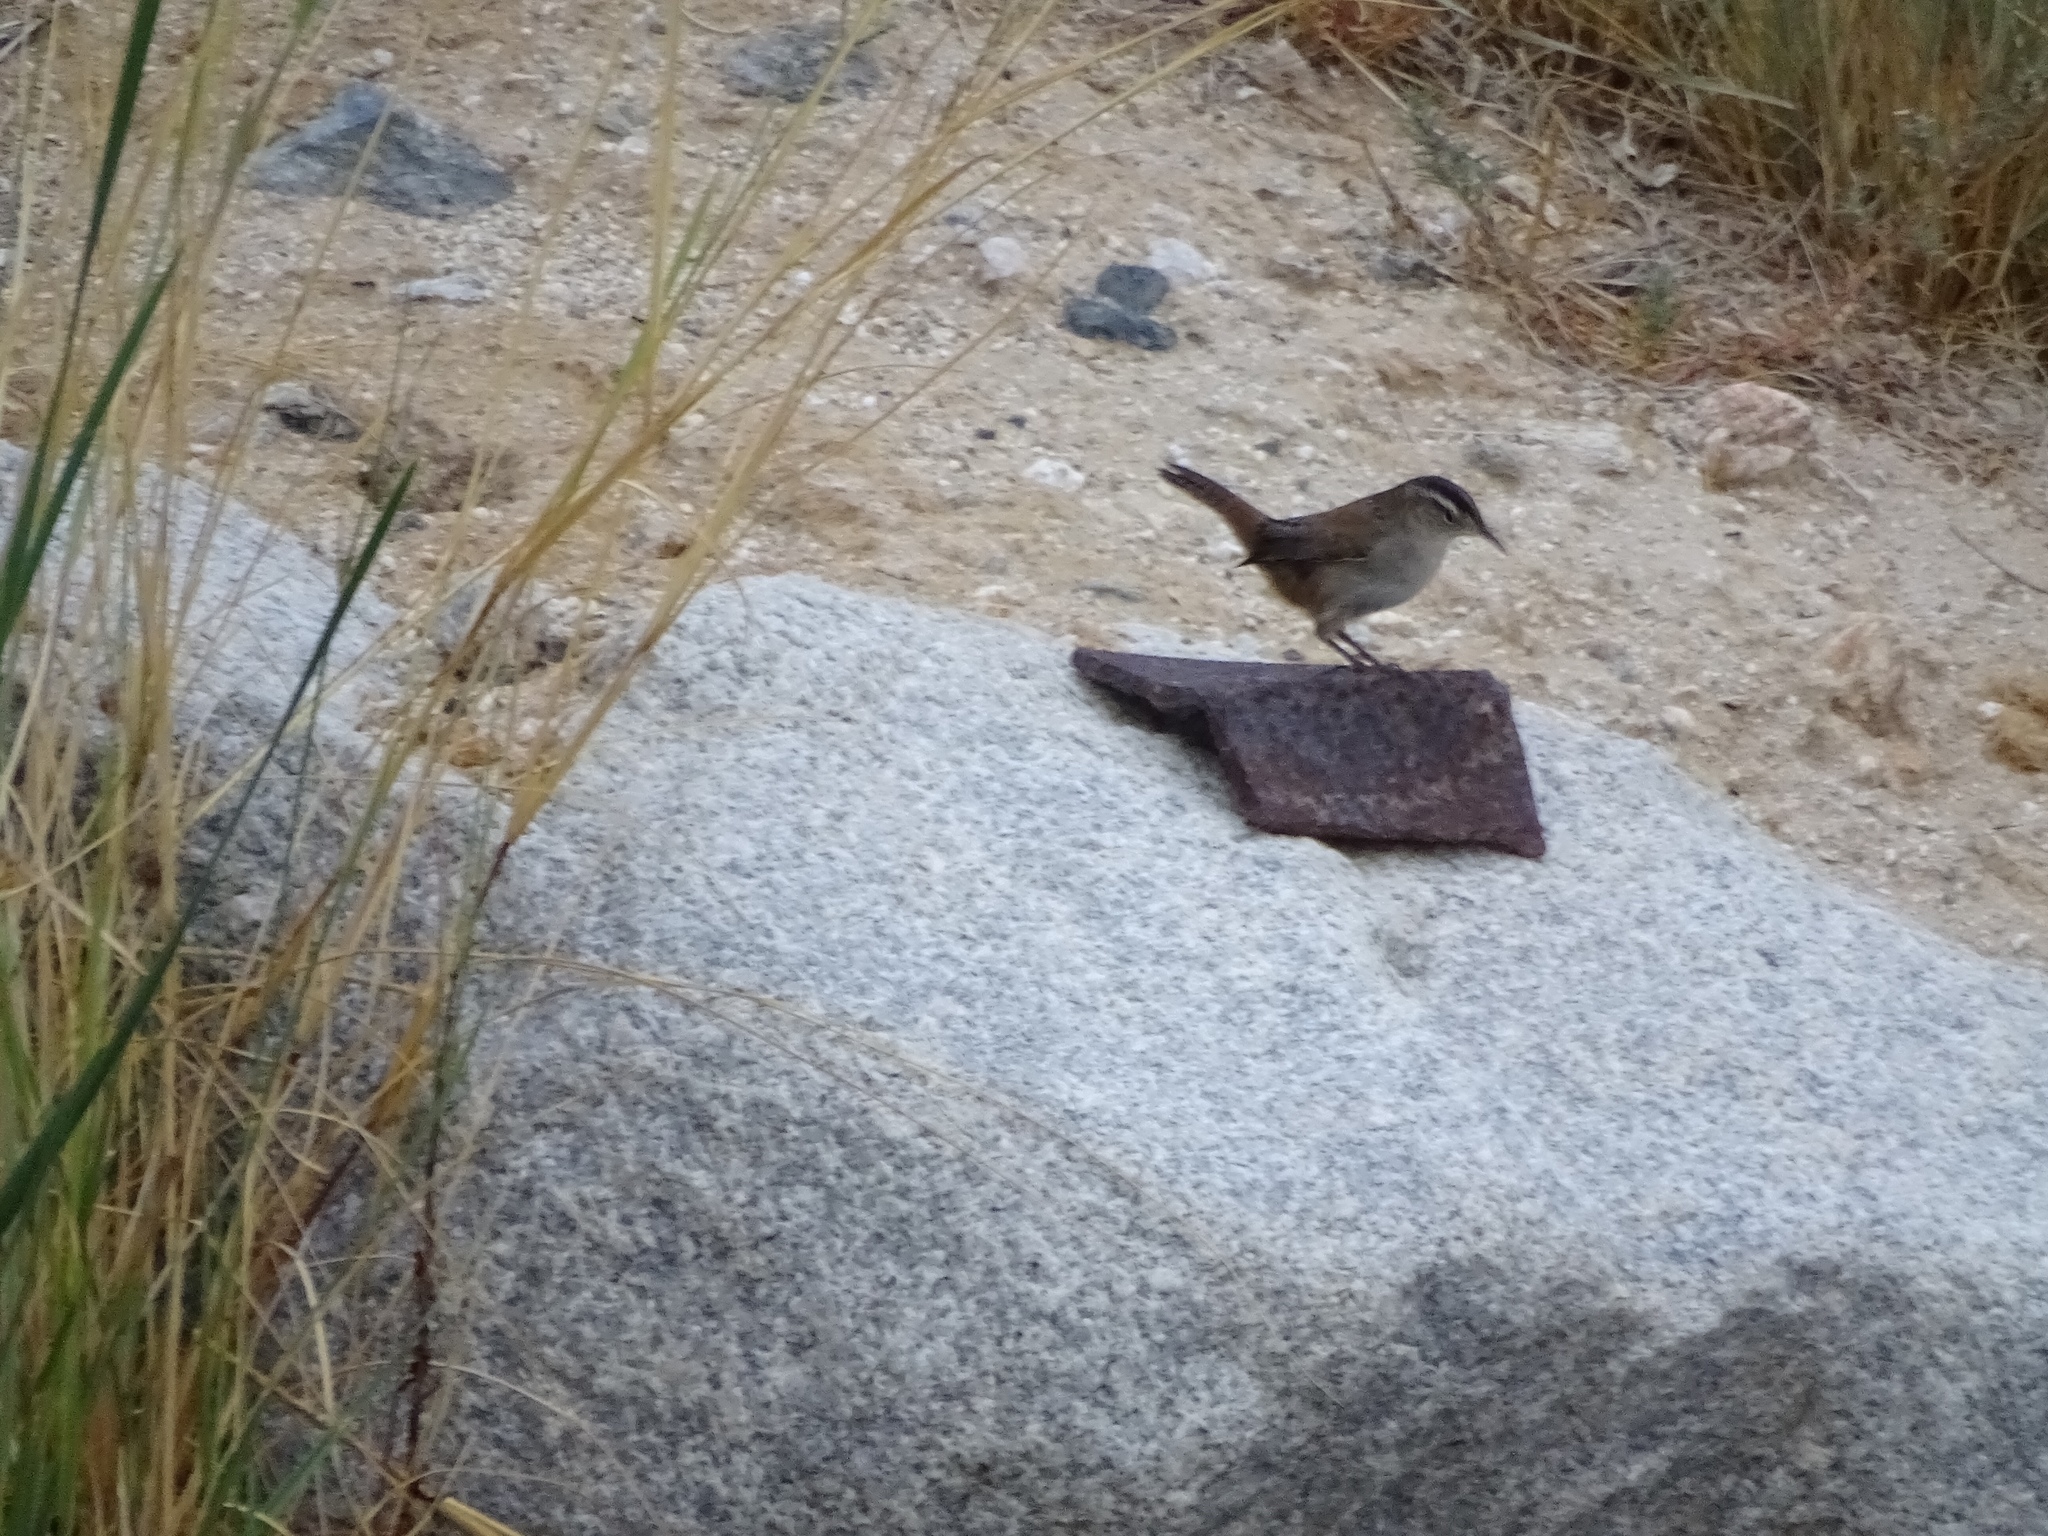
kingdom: Animalia
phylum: Chordata
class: Aves
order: Passeriformes
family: Troglodytidae
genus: Cistothorus
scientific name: Cistothorus palustris
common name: Marsh wren
